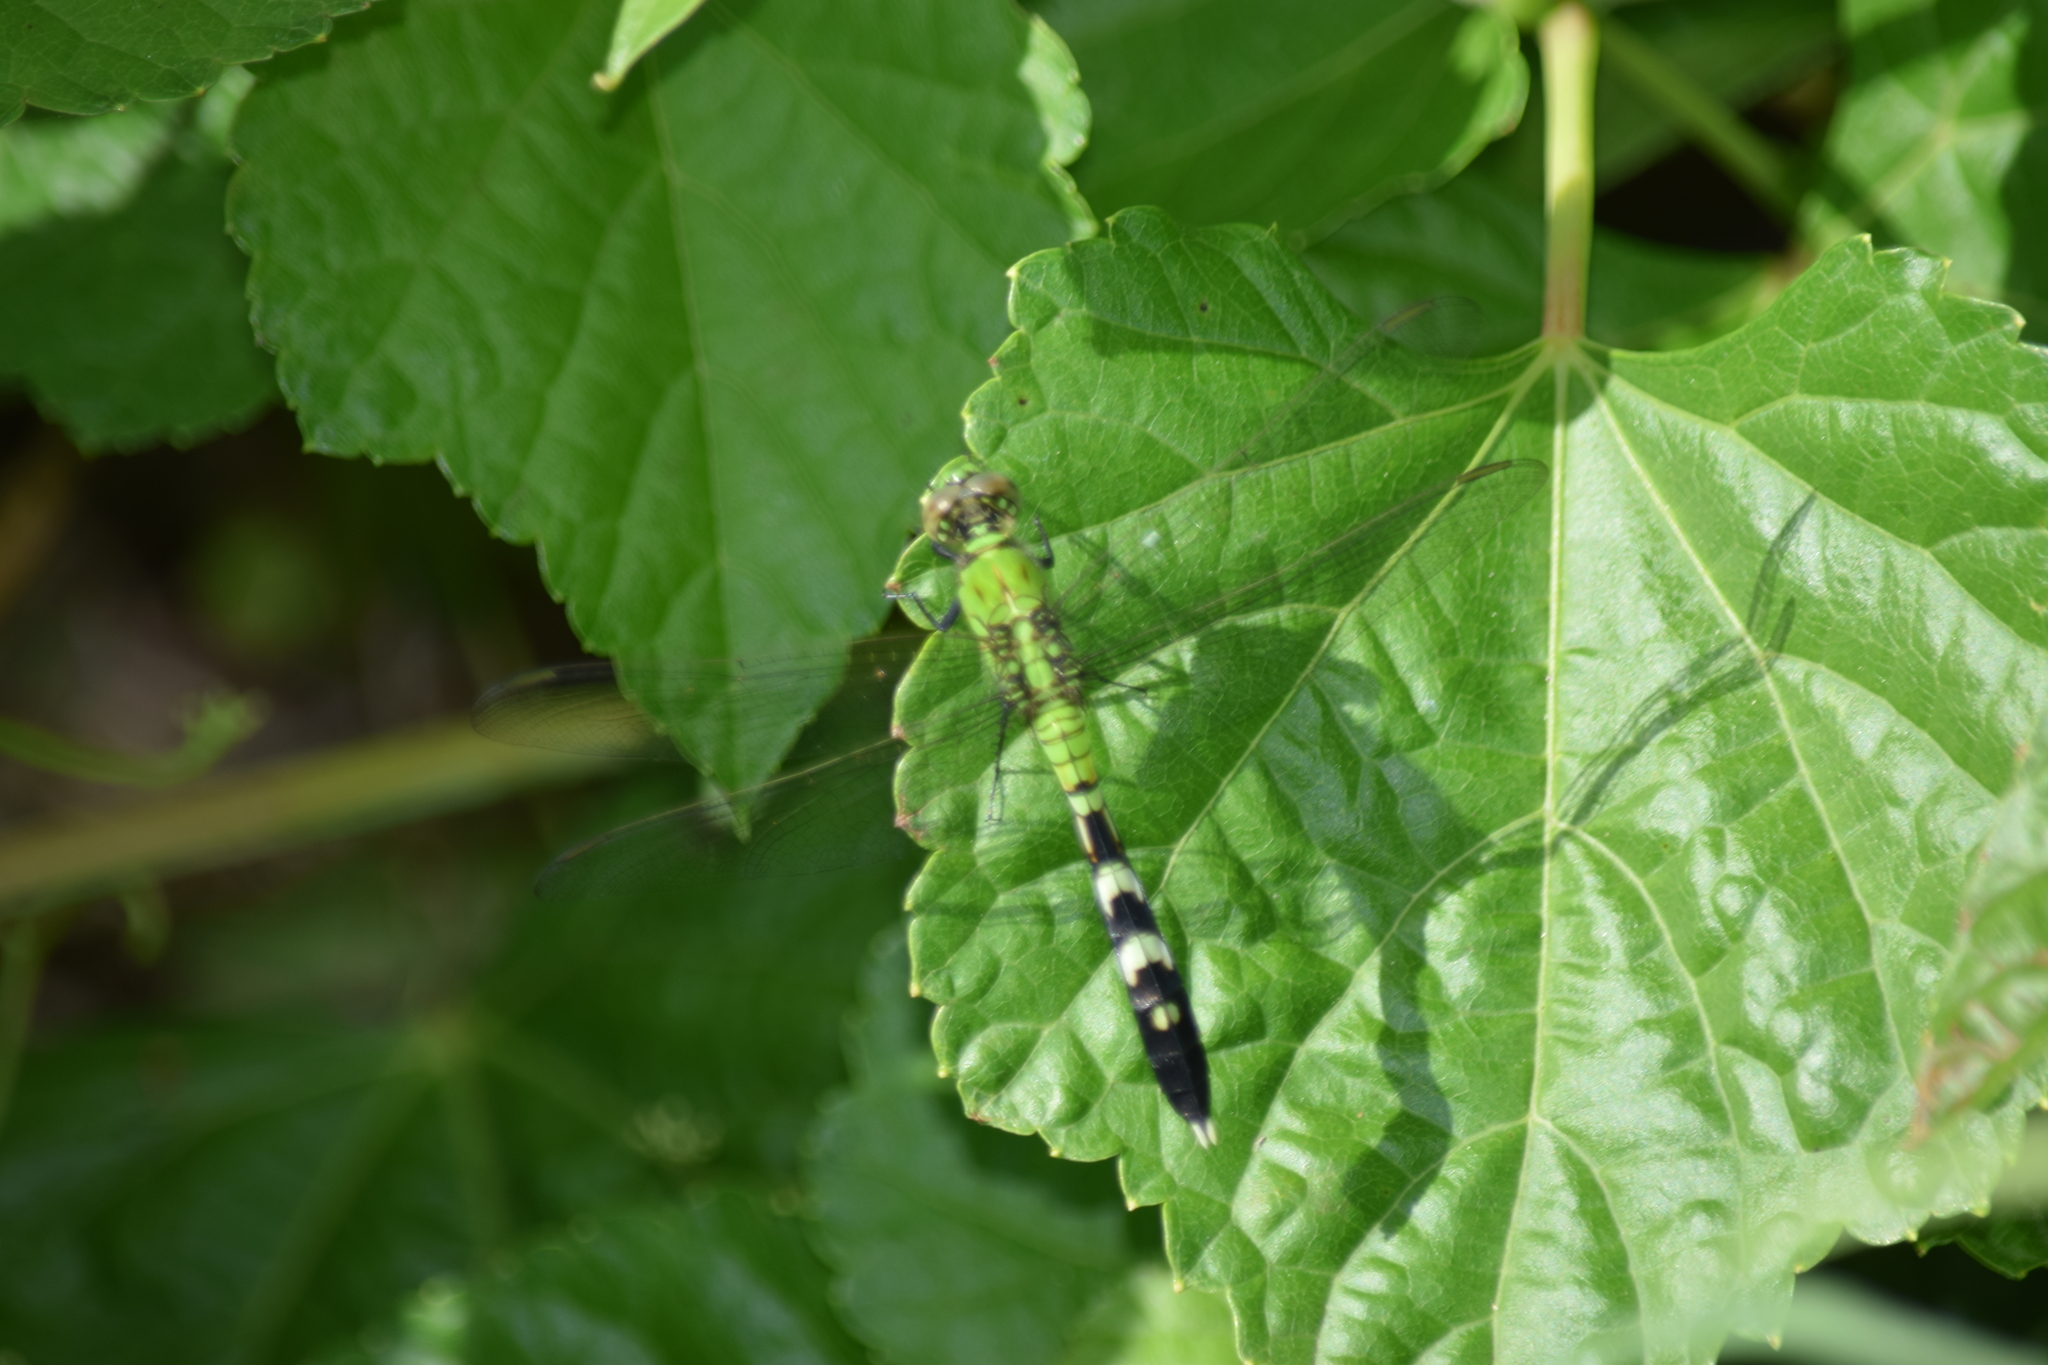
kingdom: Animalia
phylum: Arthropoda
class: Insecta
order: Odonata
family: Libellulidae
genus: Erythemis
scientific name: Erythemis simplicicollis
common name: Eastern pondhawk
